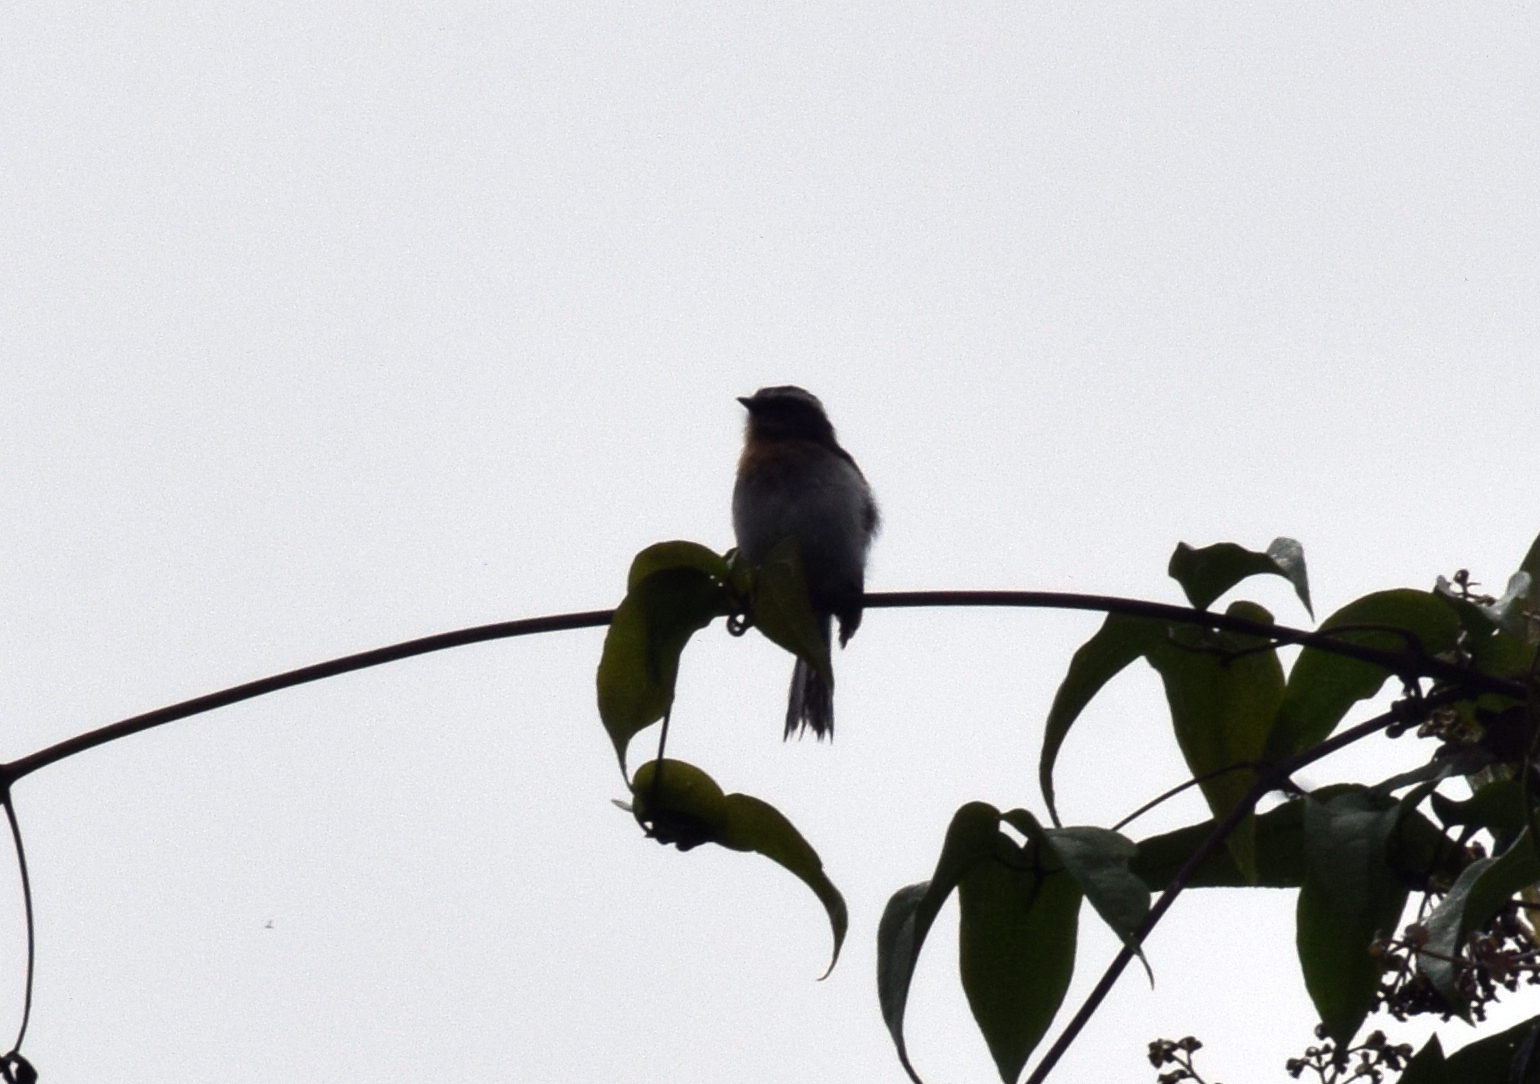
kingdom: Animalia
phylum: Chordata
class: Aves
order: Passeriformes
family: Tyrannidae
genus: Ochthoeca
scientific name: Ochthoeca rufipectoralis
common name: Rufous-breasted chat-tyrant
